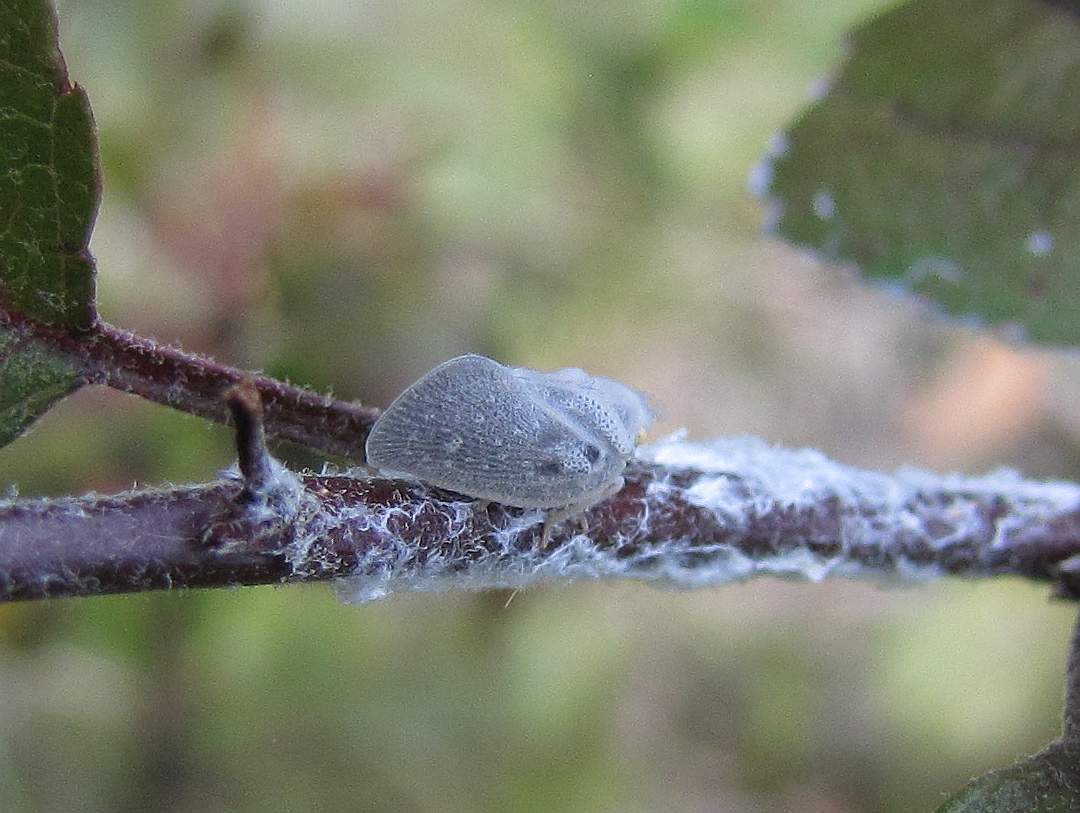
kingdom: Animalia
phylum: Arthropoda
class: Insecta
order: Hemiptera
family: Flatidae
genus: Metcalfa
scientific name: Metcalfa pruinosa
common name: Citrus flatid planthopper
